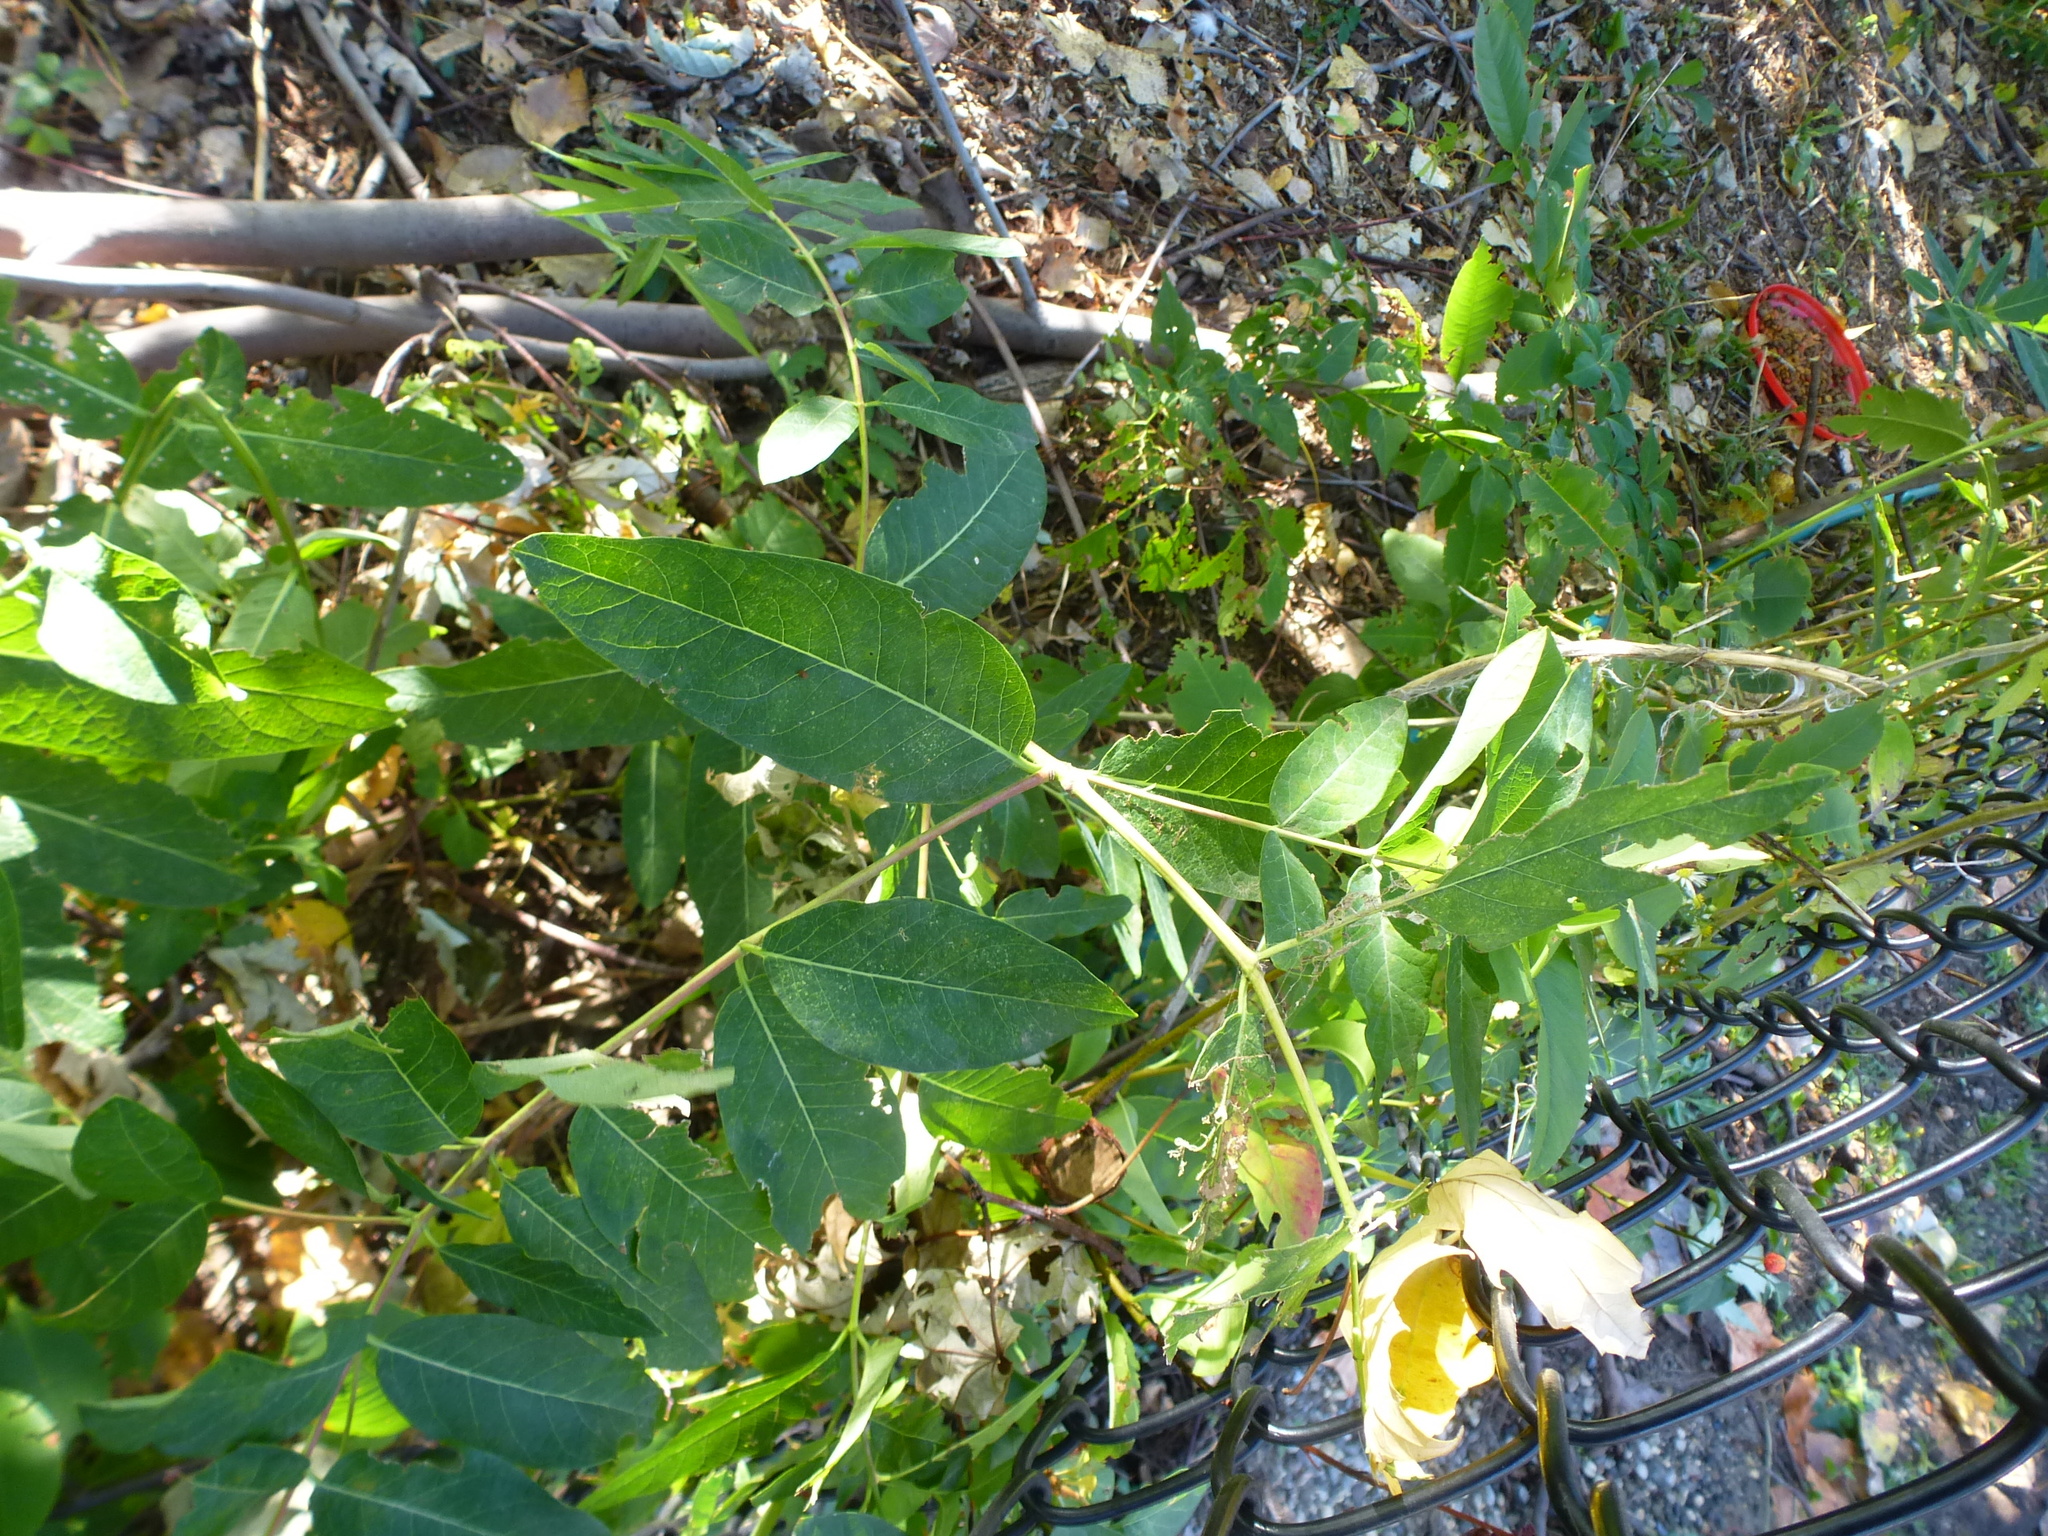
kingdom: Plantae
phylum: Tracheophyta
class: Magnoliopsida
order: Gentianales
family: Apocynaceae
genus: Apocynum
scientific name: Apocynum cannabinum
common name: Hemp dogbane
